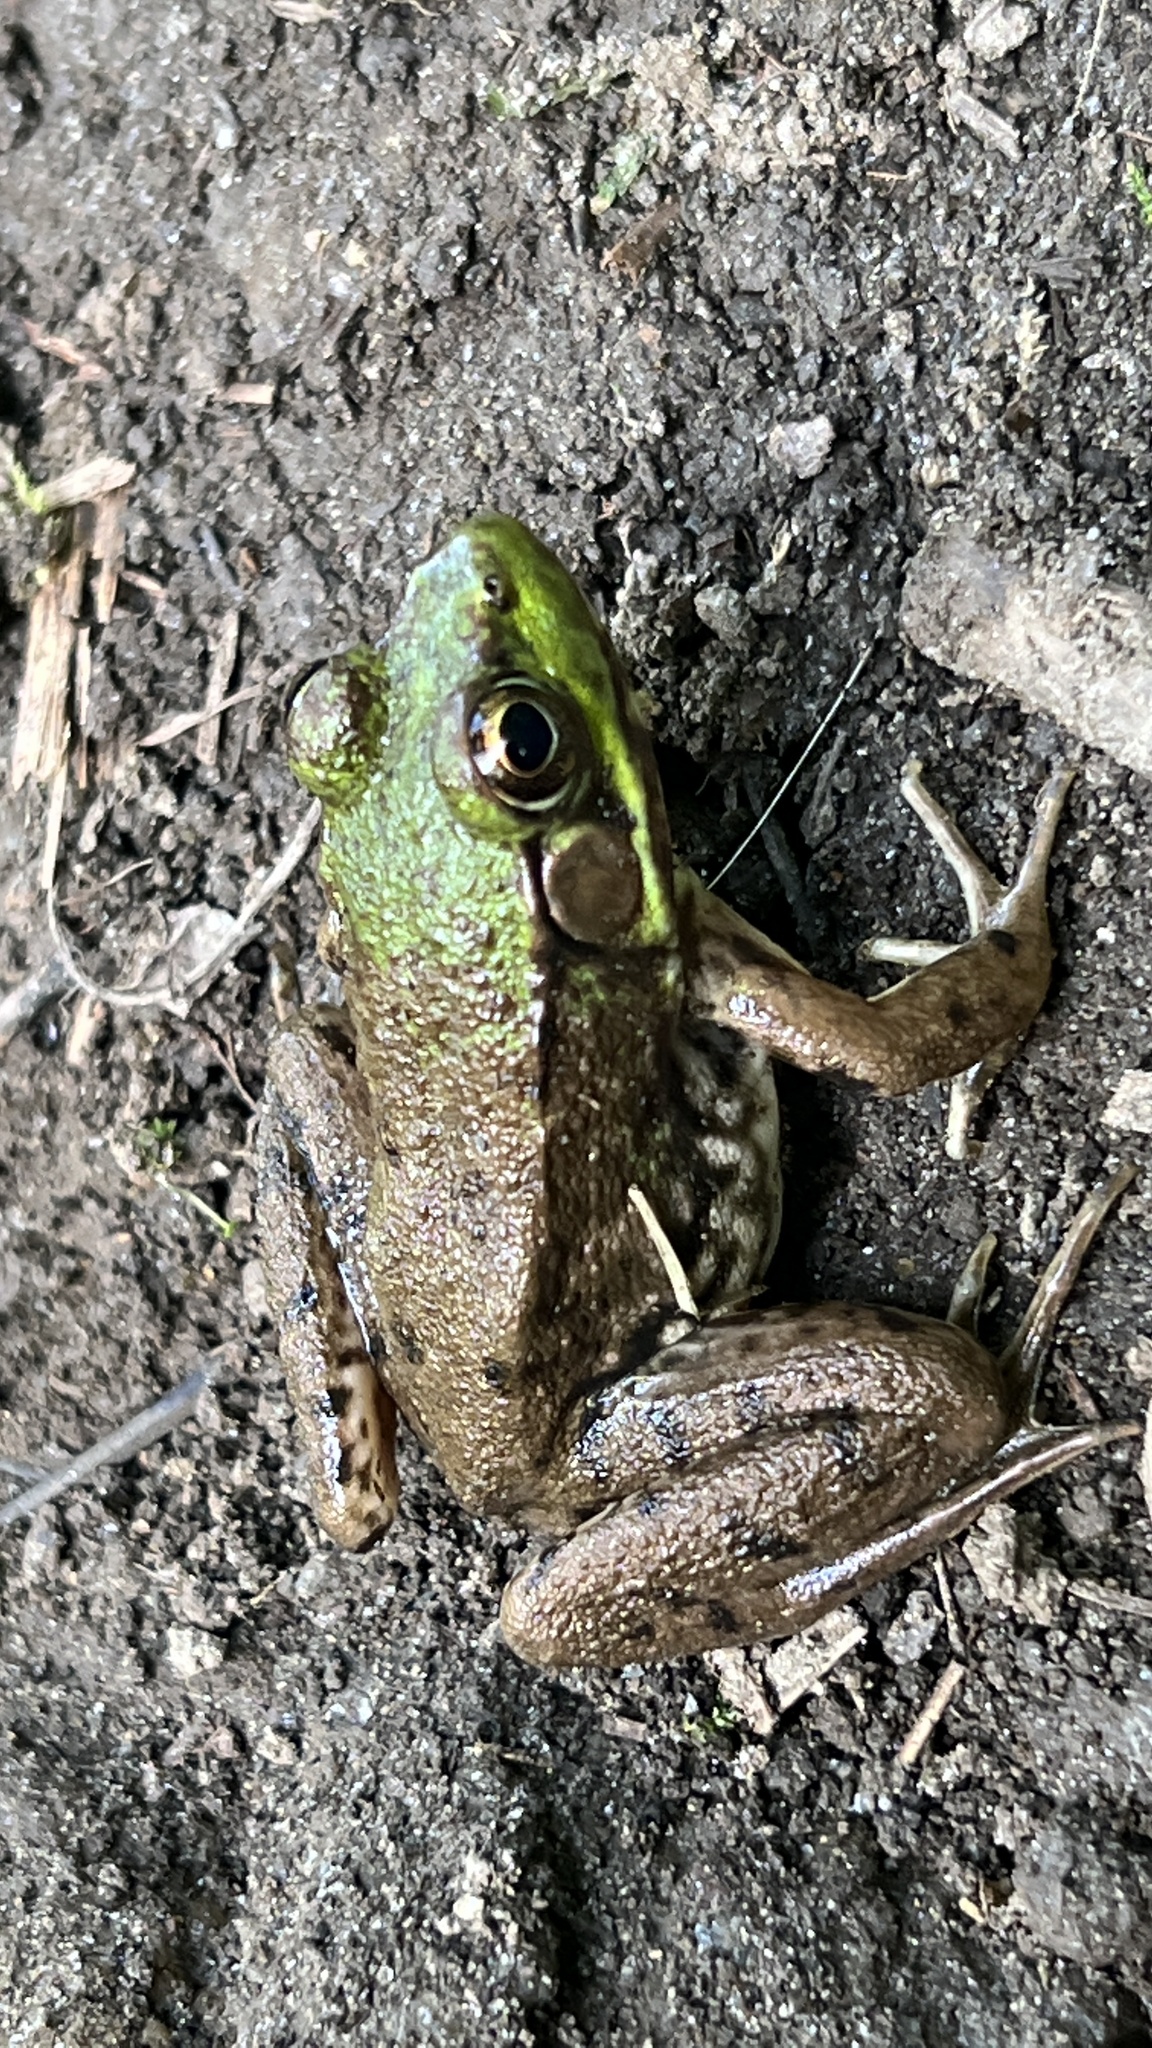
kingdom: Animalia
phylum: Chordata
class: Amphibia
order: Anura
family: Ranidae
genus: Lithobates
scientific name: Lithobates clamitans
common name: Green frog
